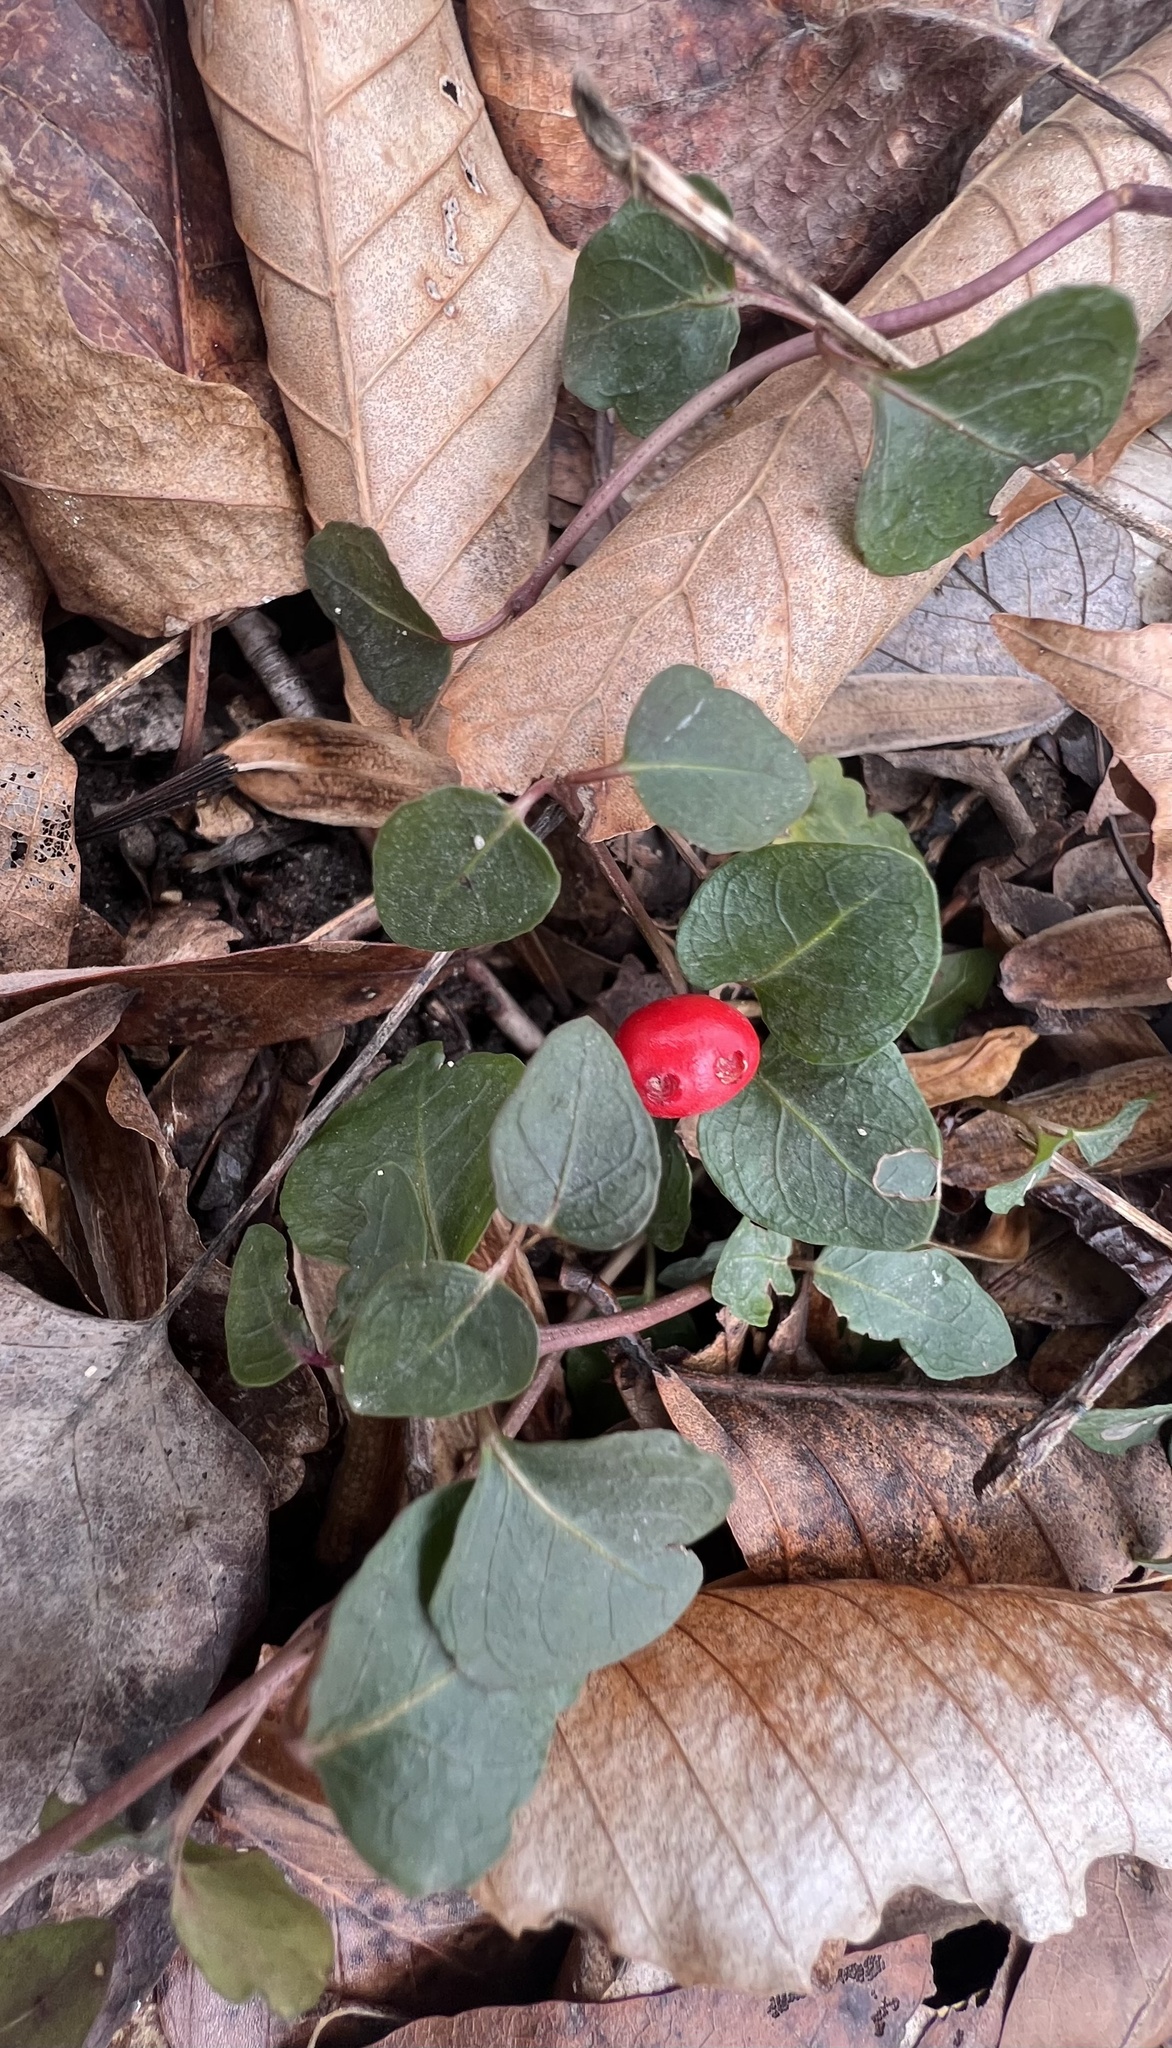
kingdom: Plantae
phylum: Tracheophyta
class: Magnoliopsida
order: Gentianales
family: Rubiaceae
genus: Mitchella
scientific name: Mitchella repens
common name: Partridge-berry
